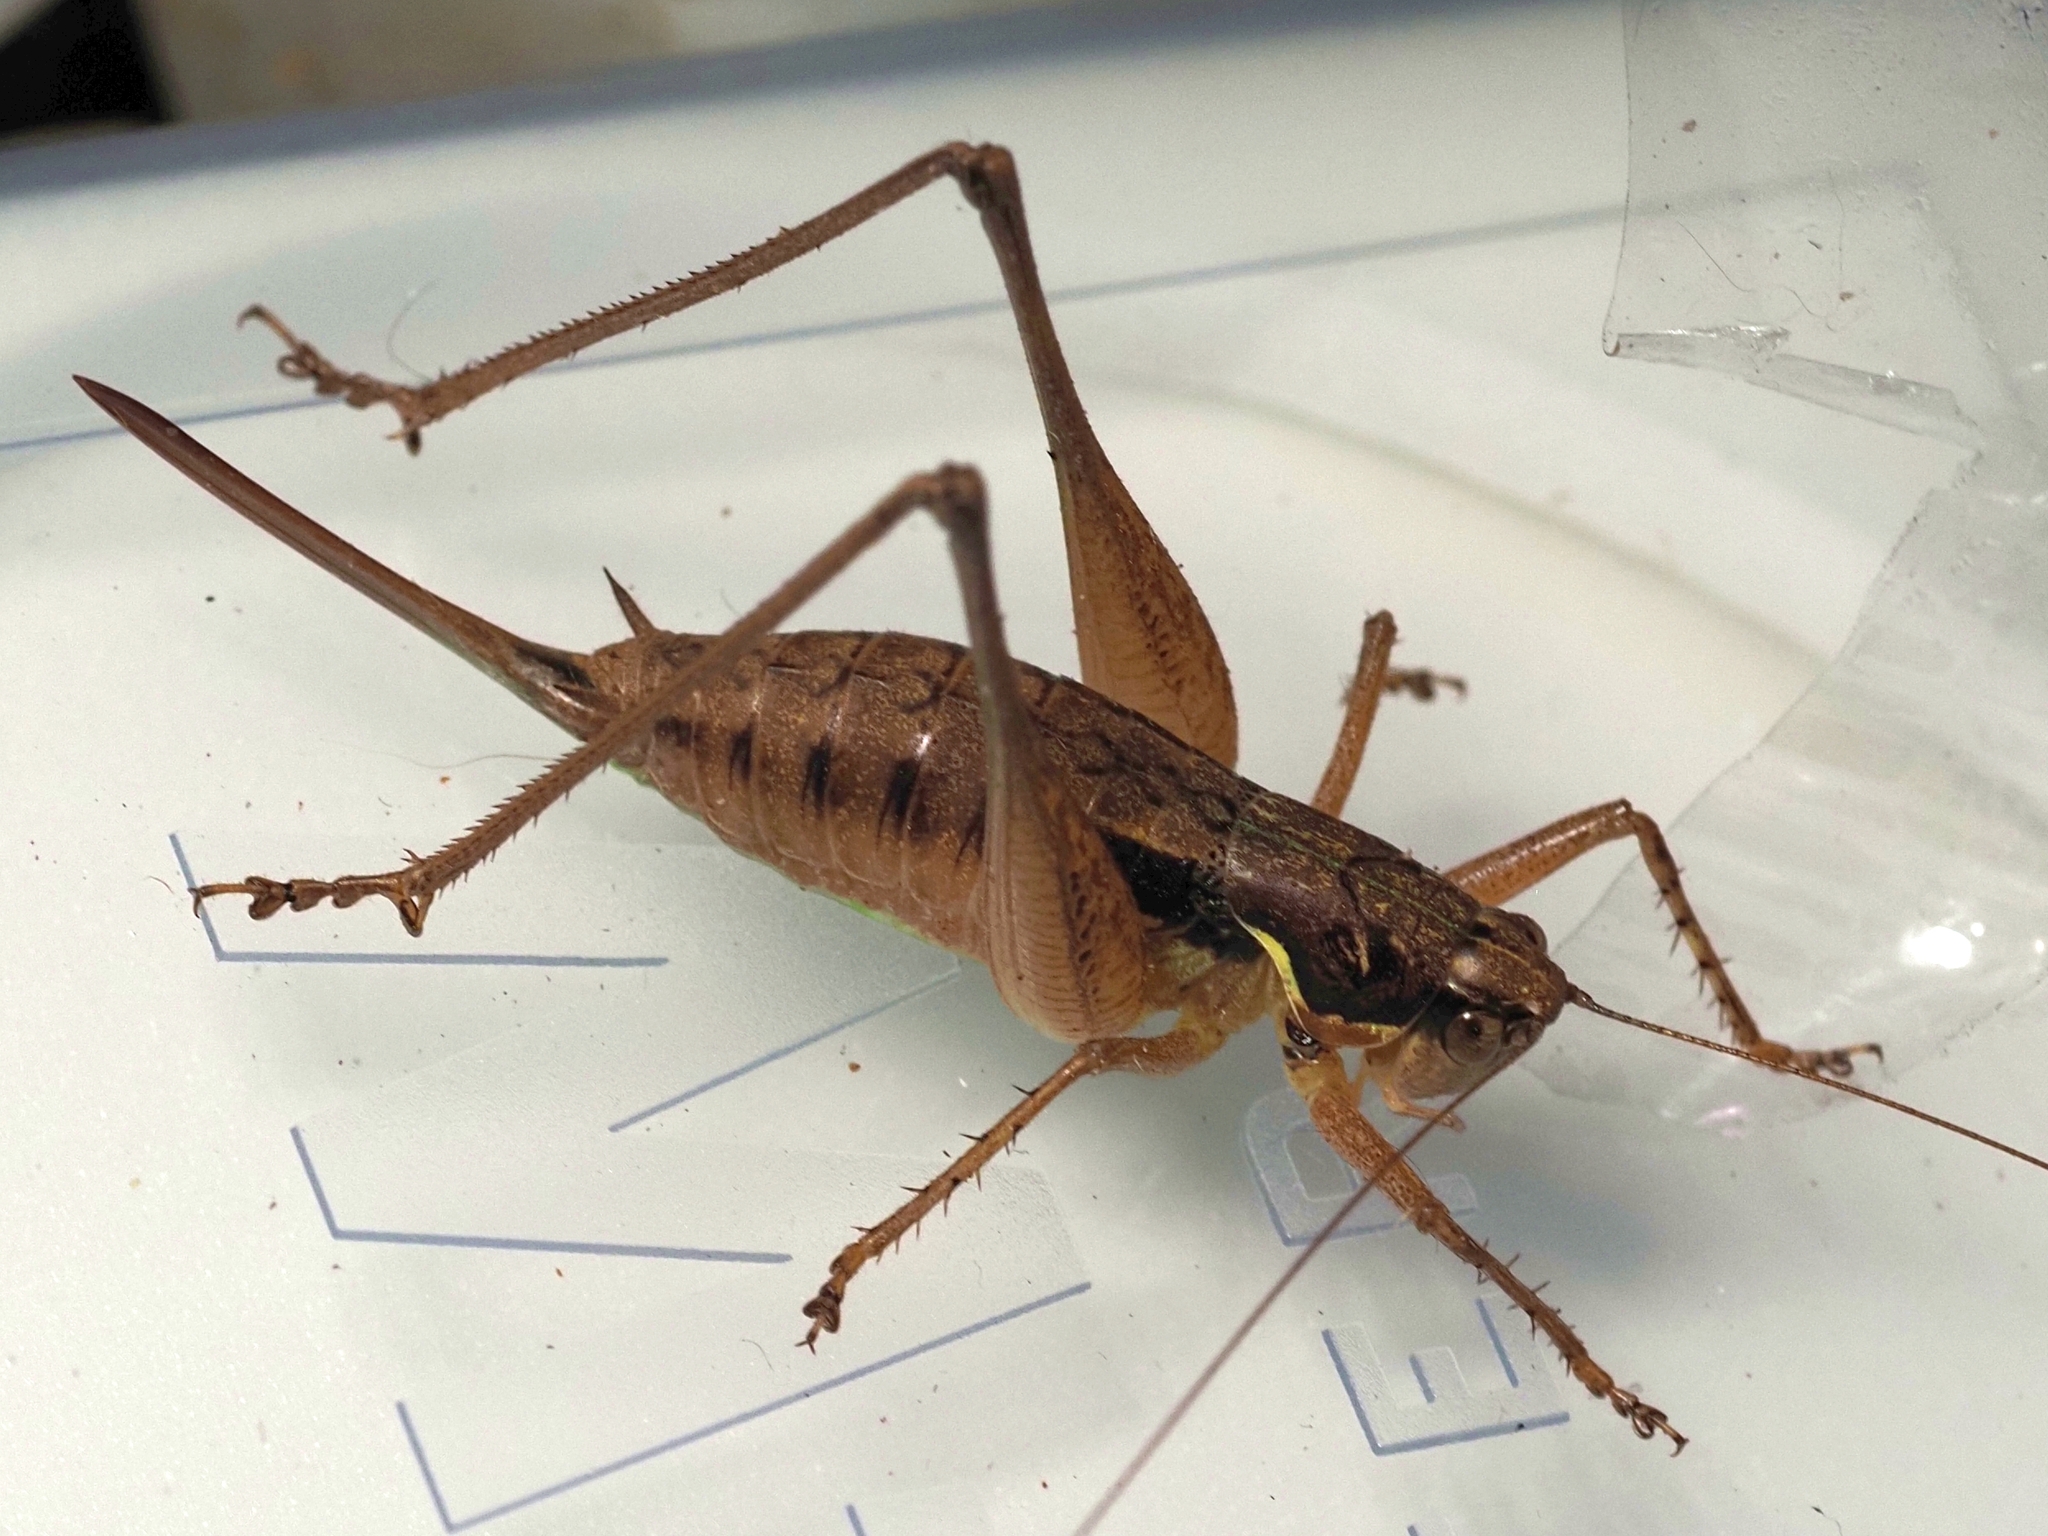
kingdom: Animalia
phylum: Arthropoda
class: Insecta
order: Orthoptera
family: Tettigoniidae
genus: Pachytrachis
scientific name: Pachytrachis gracilis
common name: Graceful bush-cricket
